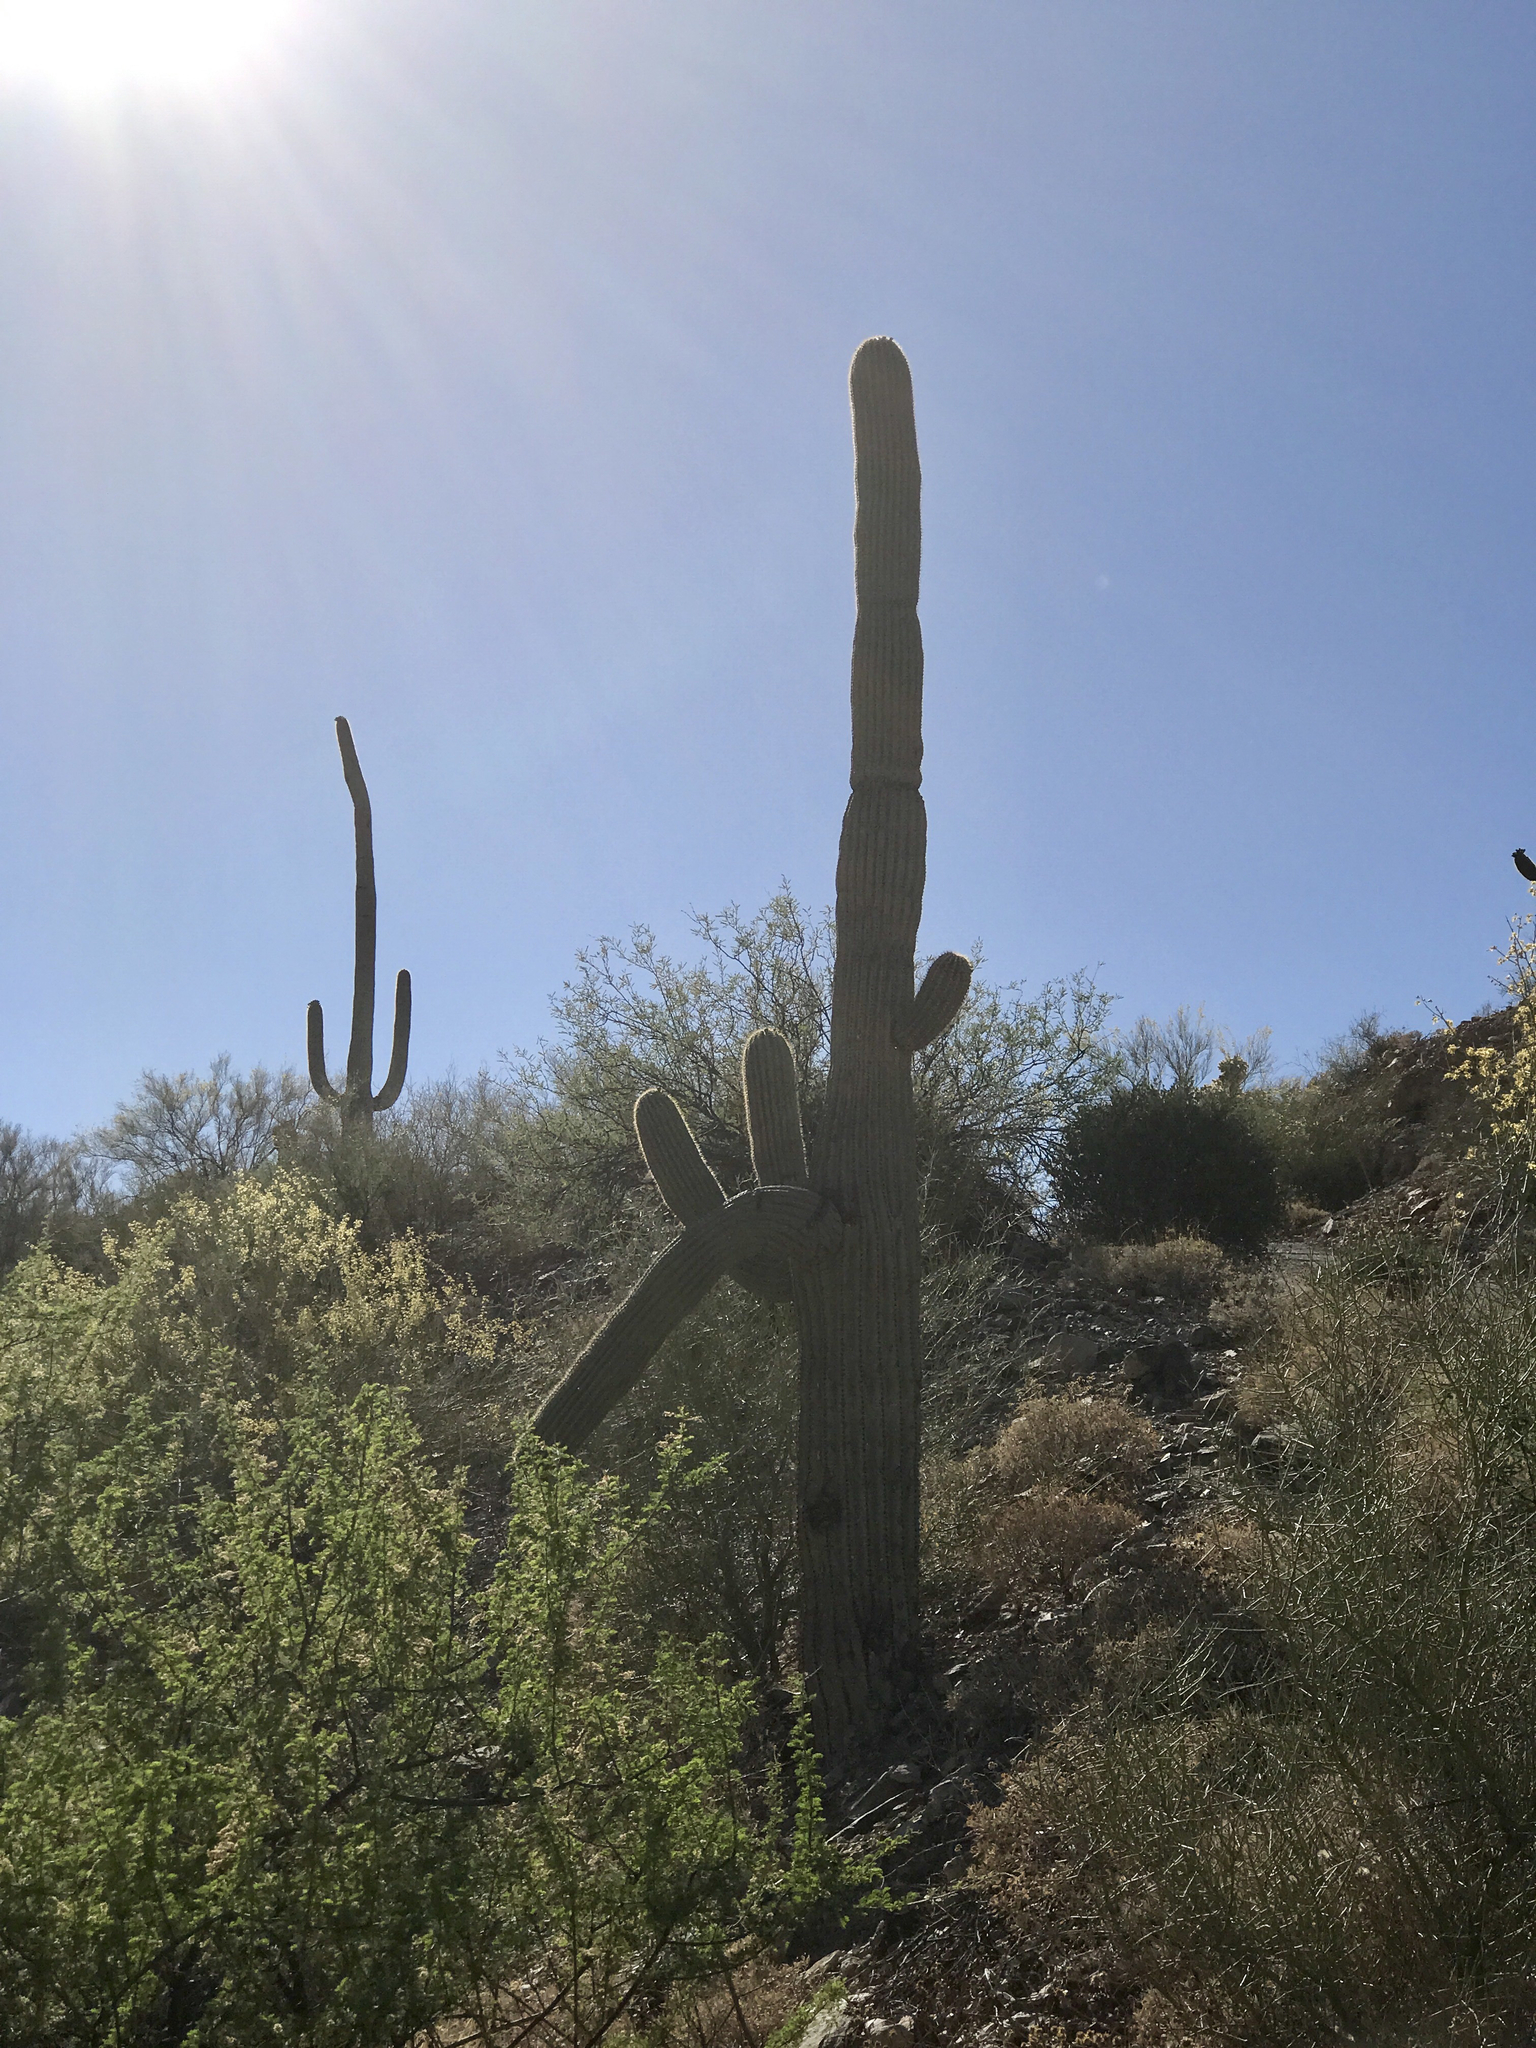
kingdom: Plantae
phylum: Tracheophyta
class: Magnoliopsida
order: Caryophyllales
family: Cactaceae
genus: Carnegiea
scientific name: Carnegiea gigantea
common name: Saguaro
